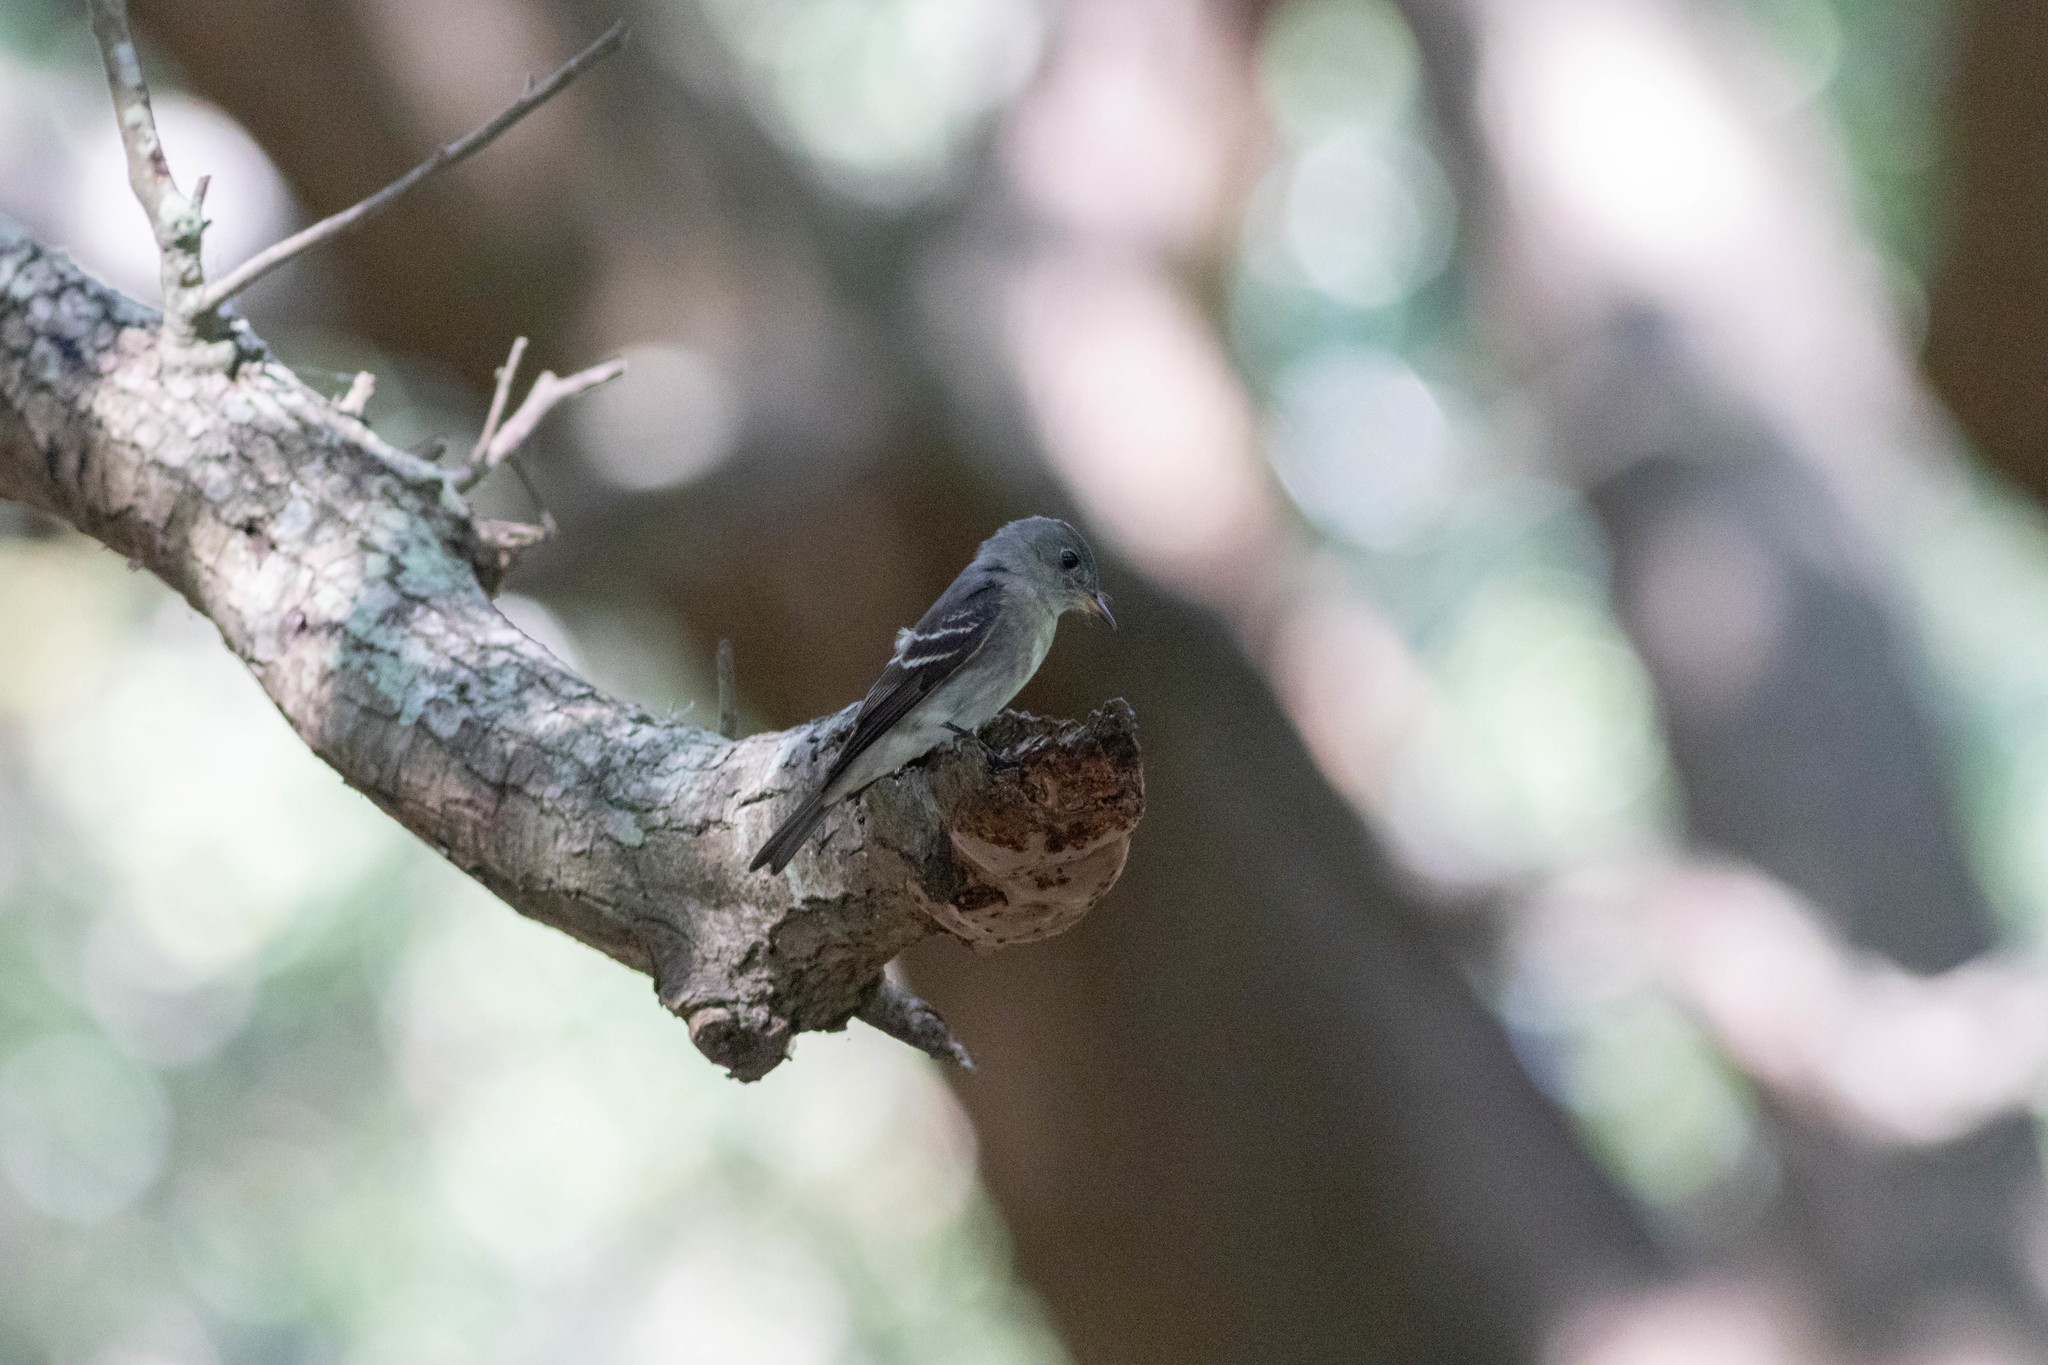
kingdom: Animalia
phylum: Chordata
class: Aves
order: Passeriformes
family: Tyrannidae
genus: Contopus
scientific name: Contopus virens
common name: Eastern wood-pewee
